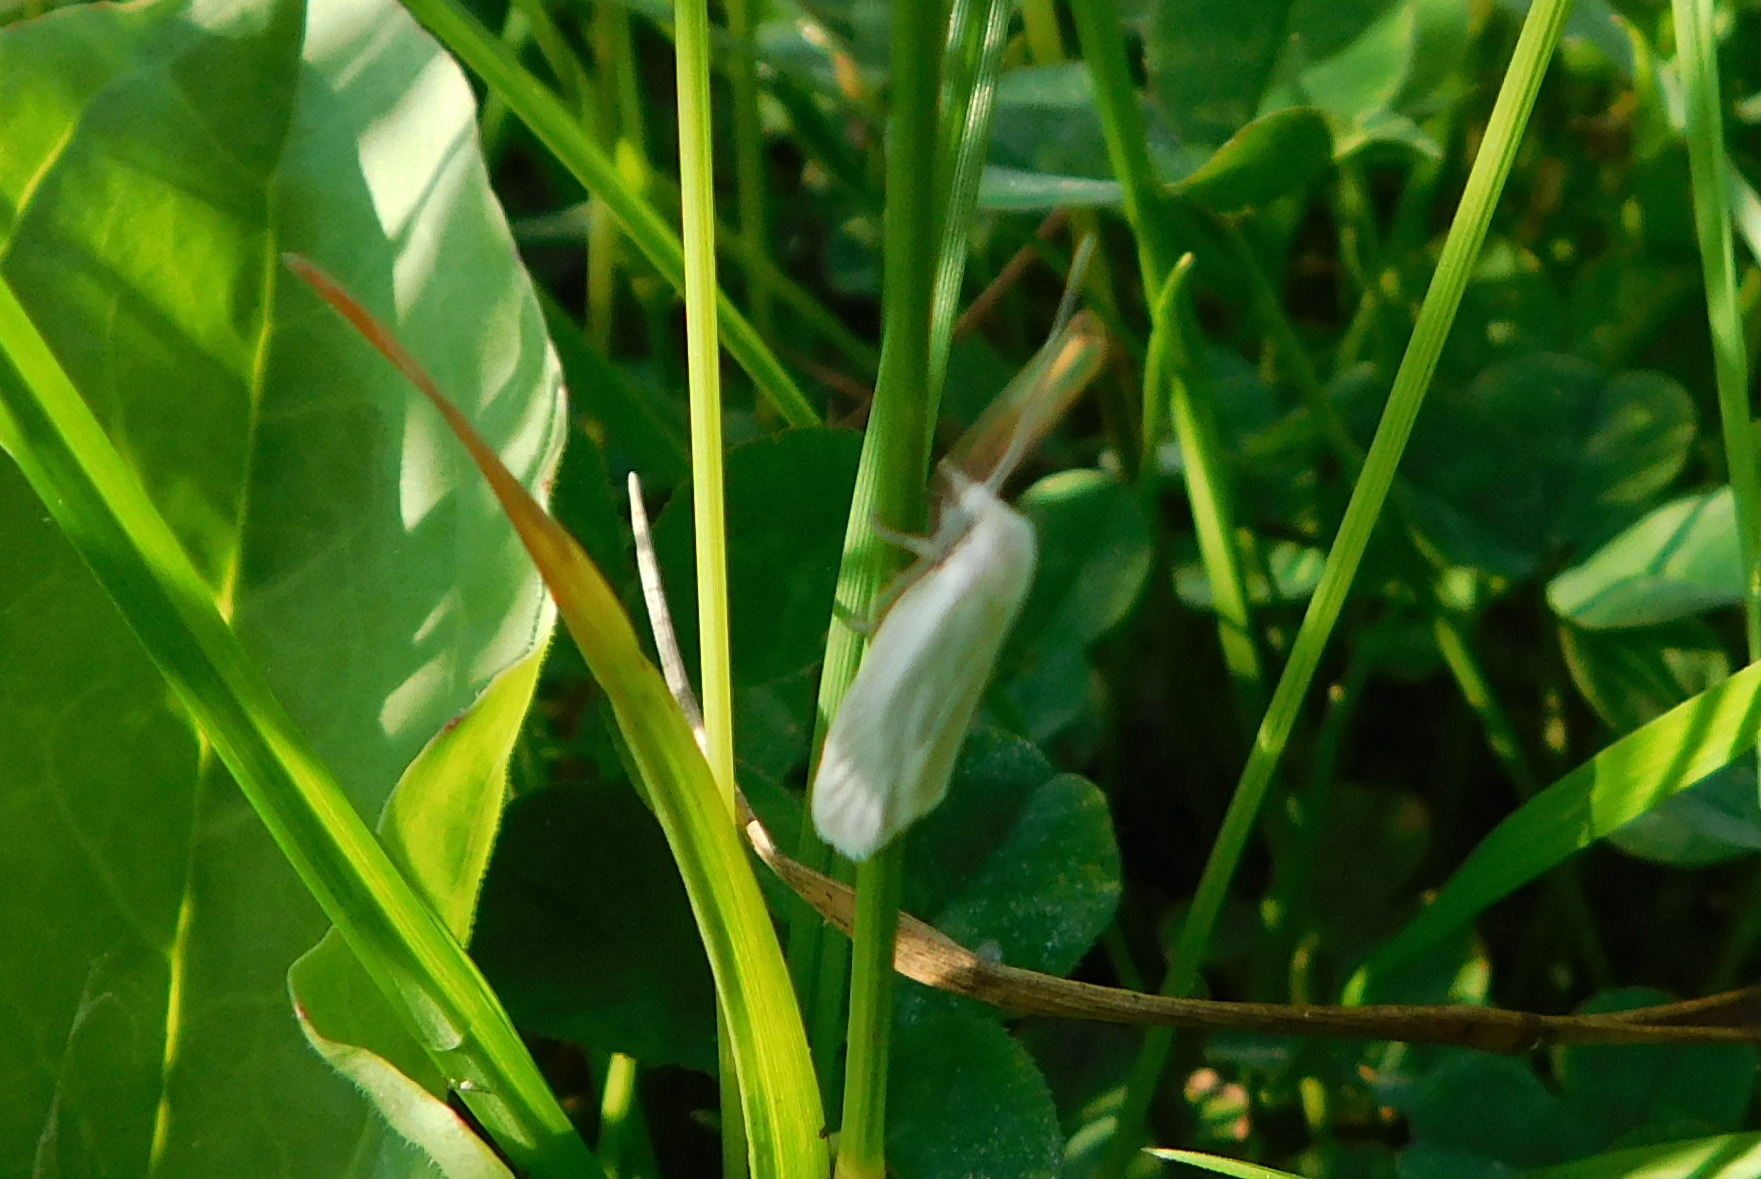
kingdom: Animalia
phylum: Arthropoda
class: Insecta
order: Lepidoptera
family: Tortricidae
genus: Eana
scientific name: Eana argentana
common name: Silver shade
